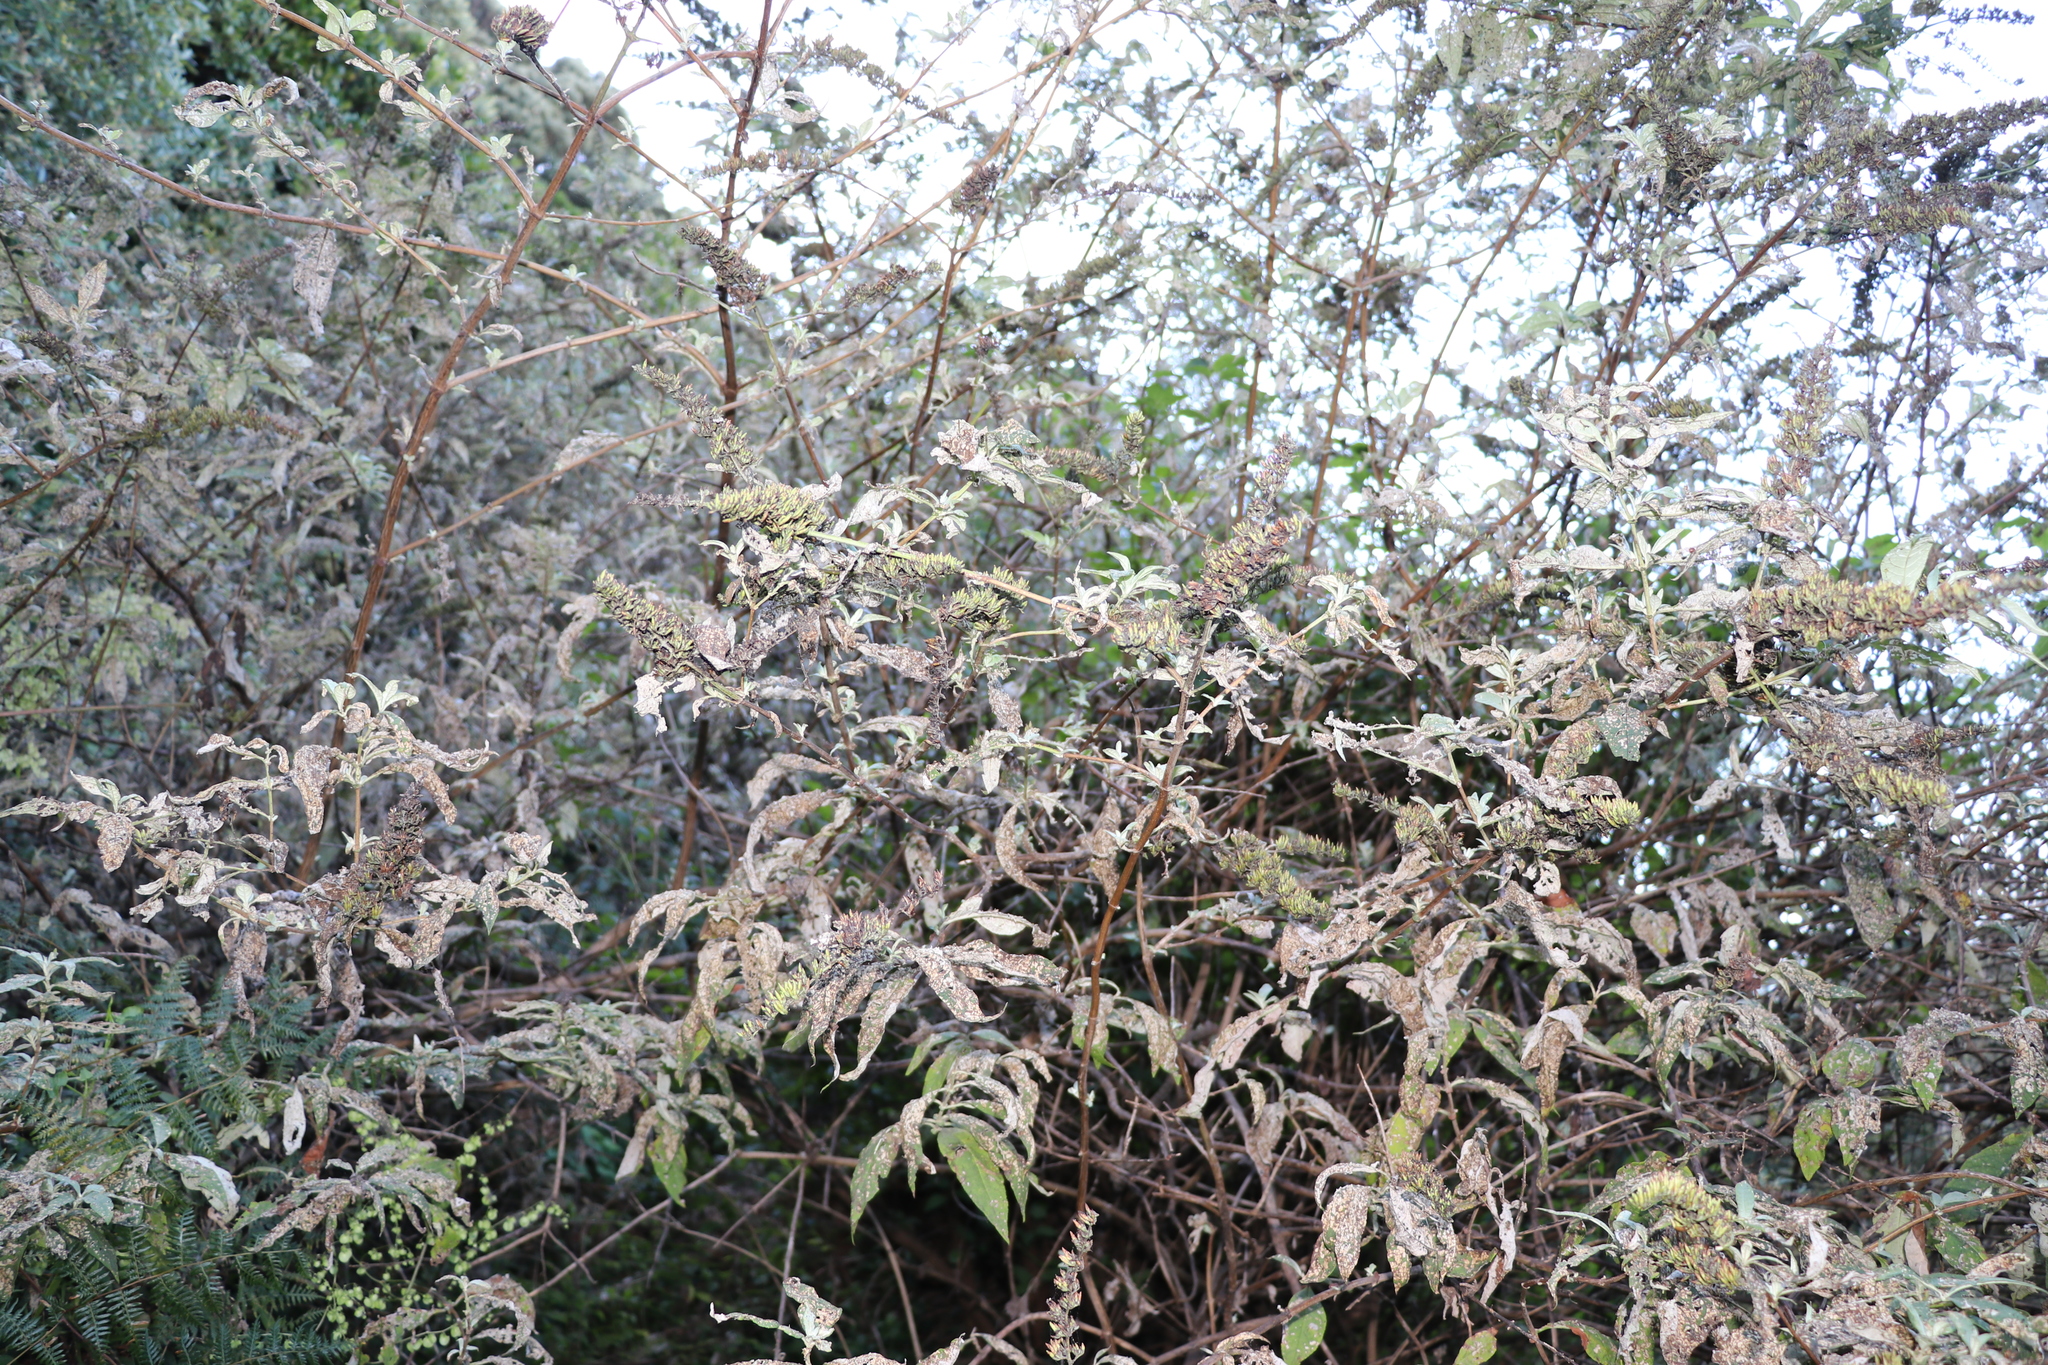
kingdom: Plantae
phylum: Tracheophyta
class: Magnoliopsida
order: Lamiales
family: Scrophulariaceae
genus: Buddleja
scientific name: Buddleja davidii
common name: Butterfly-bush
